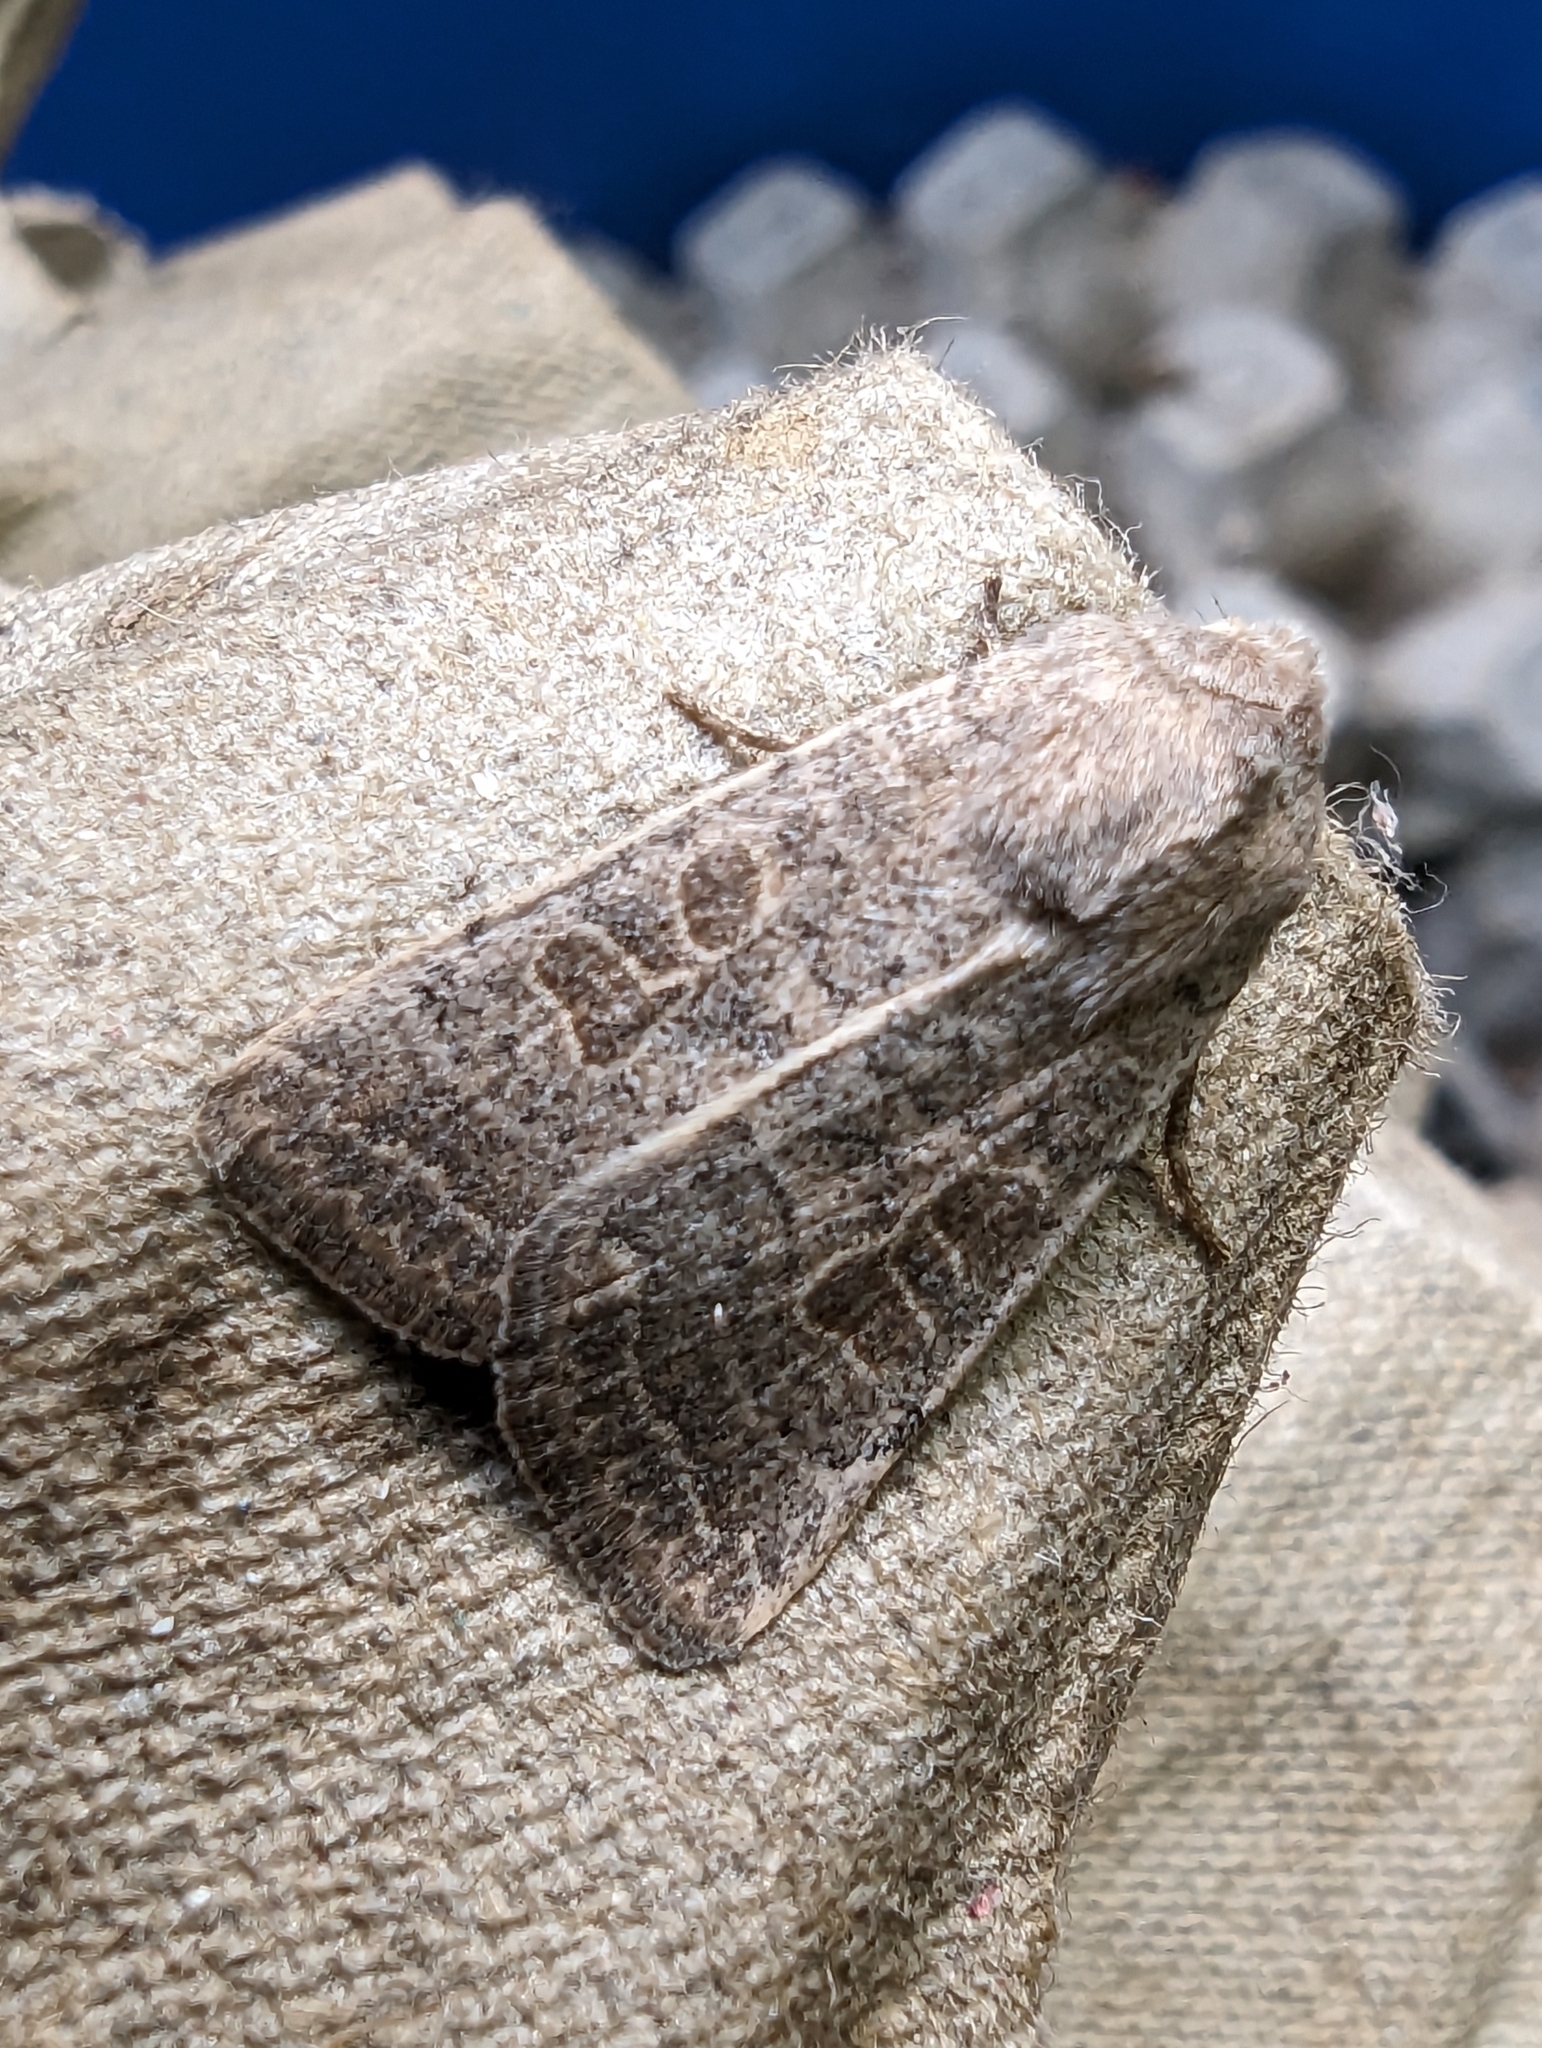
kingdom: Animalia
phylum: Arthropoda
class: Insecta
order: Lepidoptera
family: Noctuidae
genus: Hoplodrina
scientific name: Hoplodrina ambigua
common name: Vine's rustic
